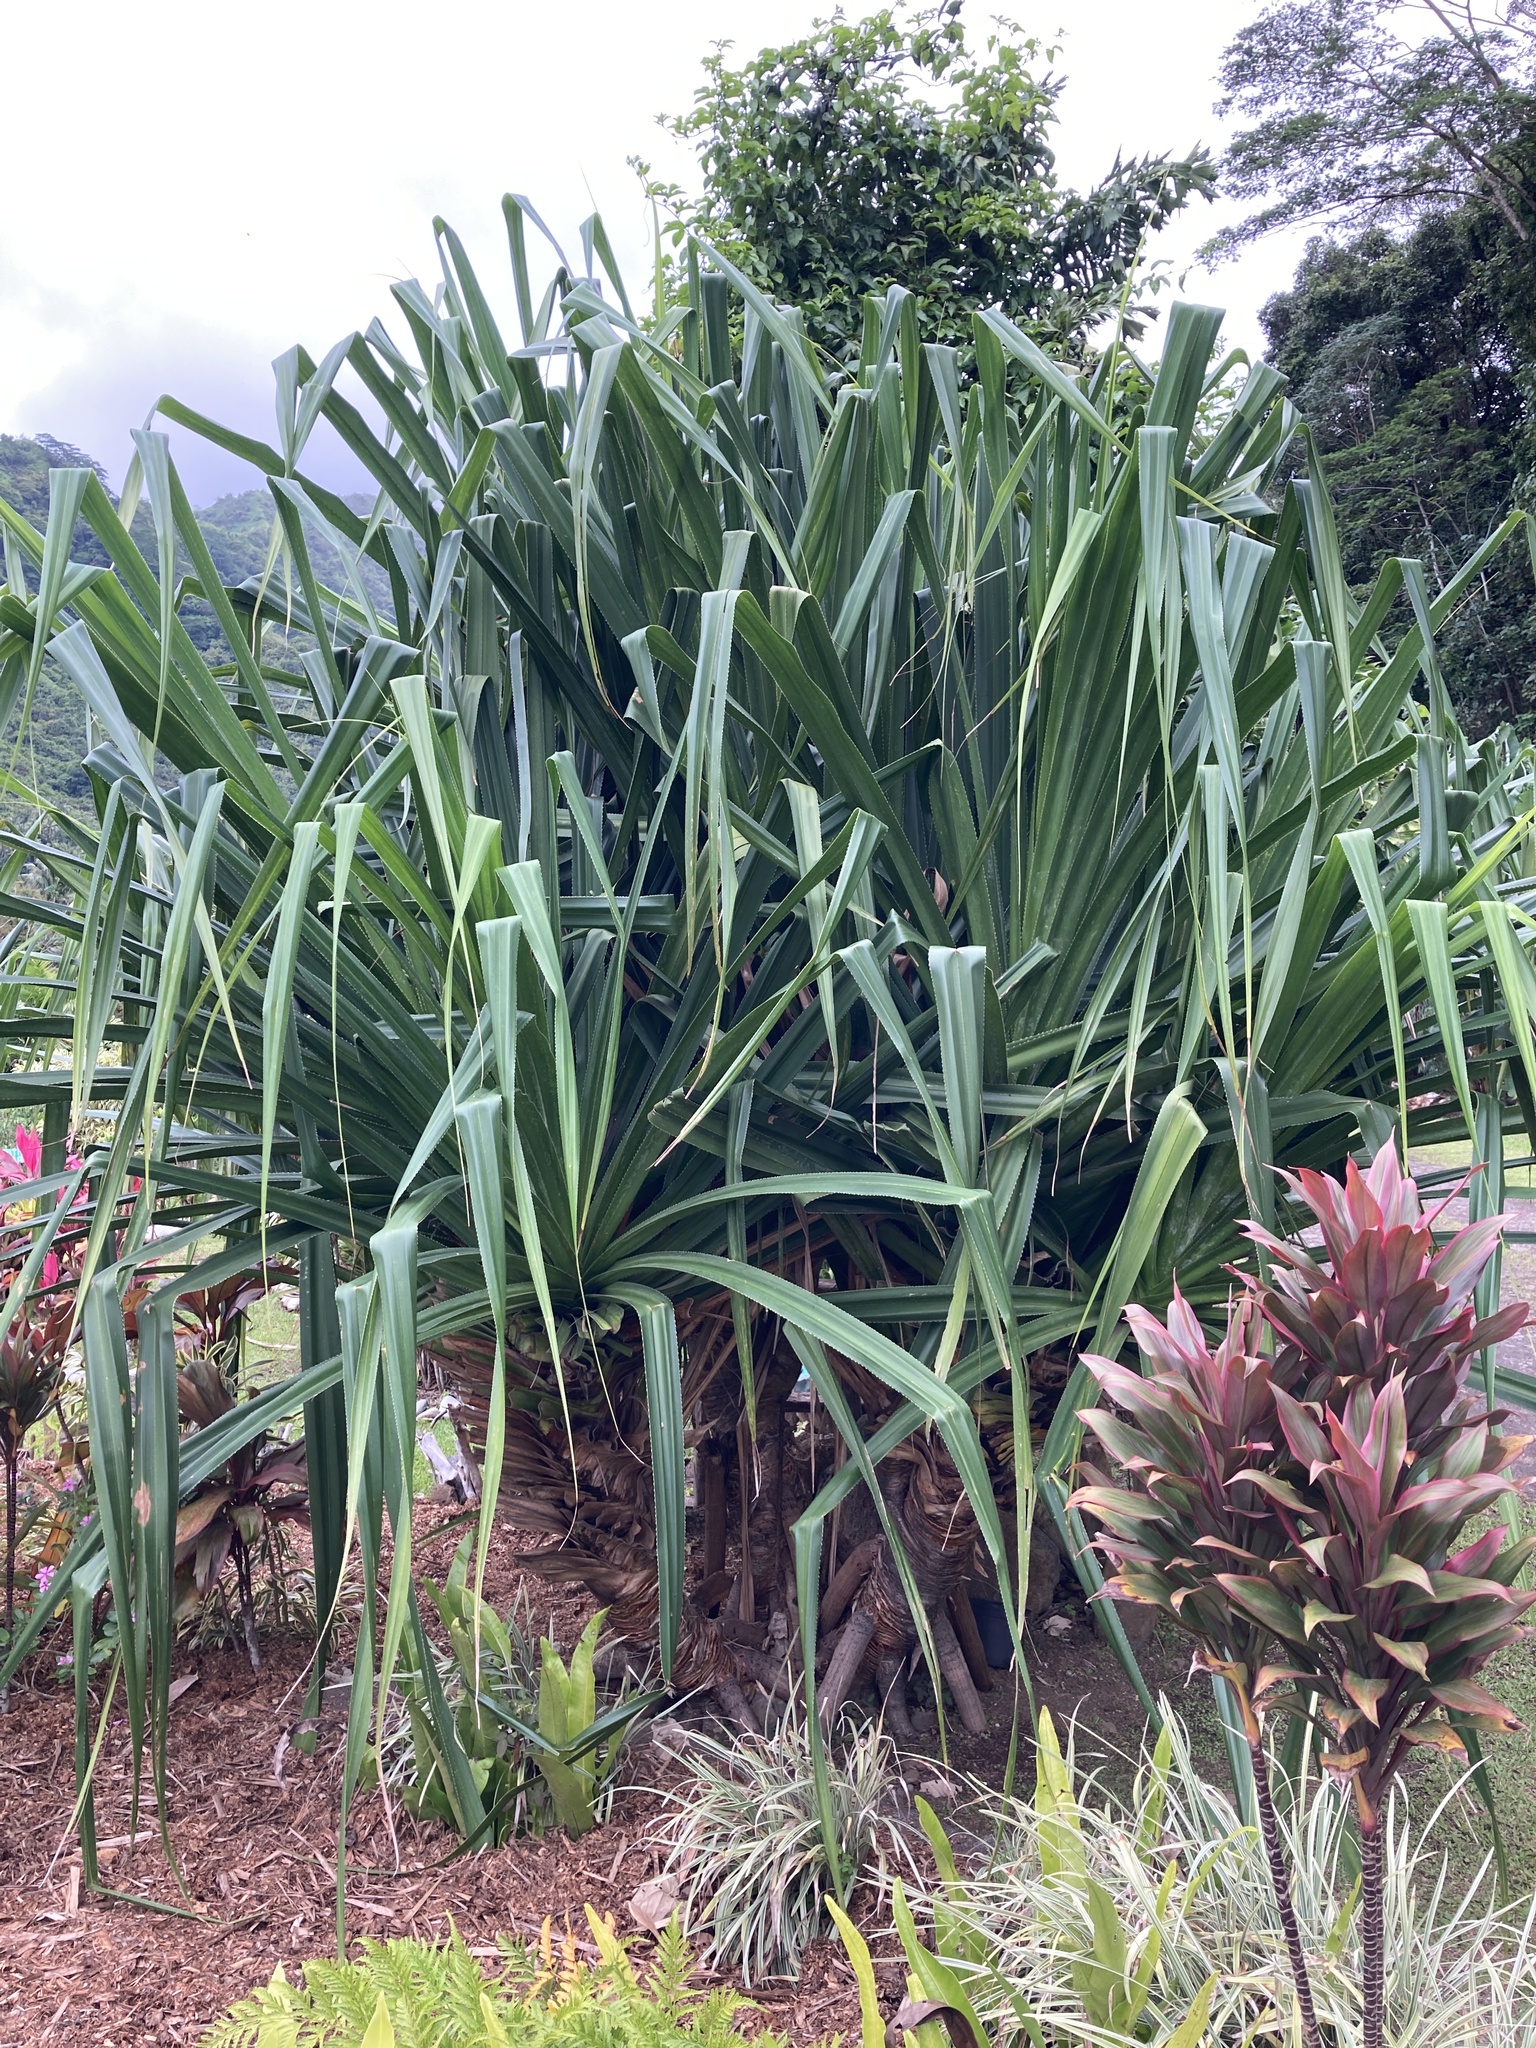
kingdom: Plantae
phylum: Tracheophyta
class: Liliopsida
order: Pandanales
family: Pandanaceae
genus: Pandanus
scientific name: Pandanus tectorius
